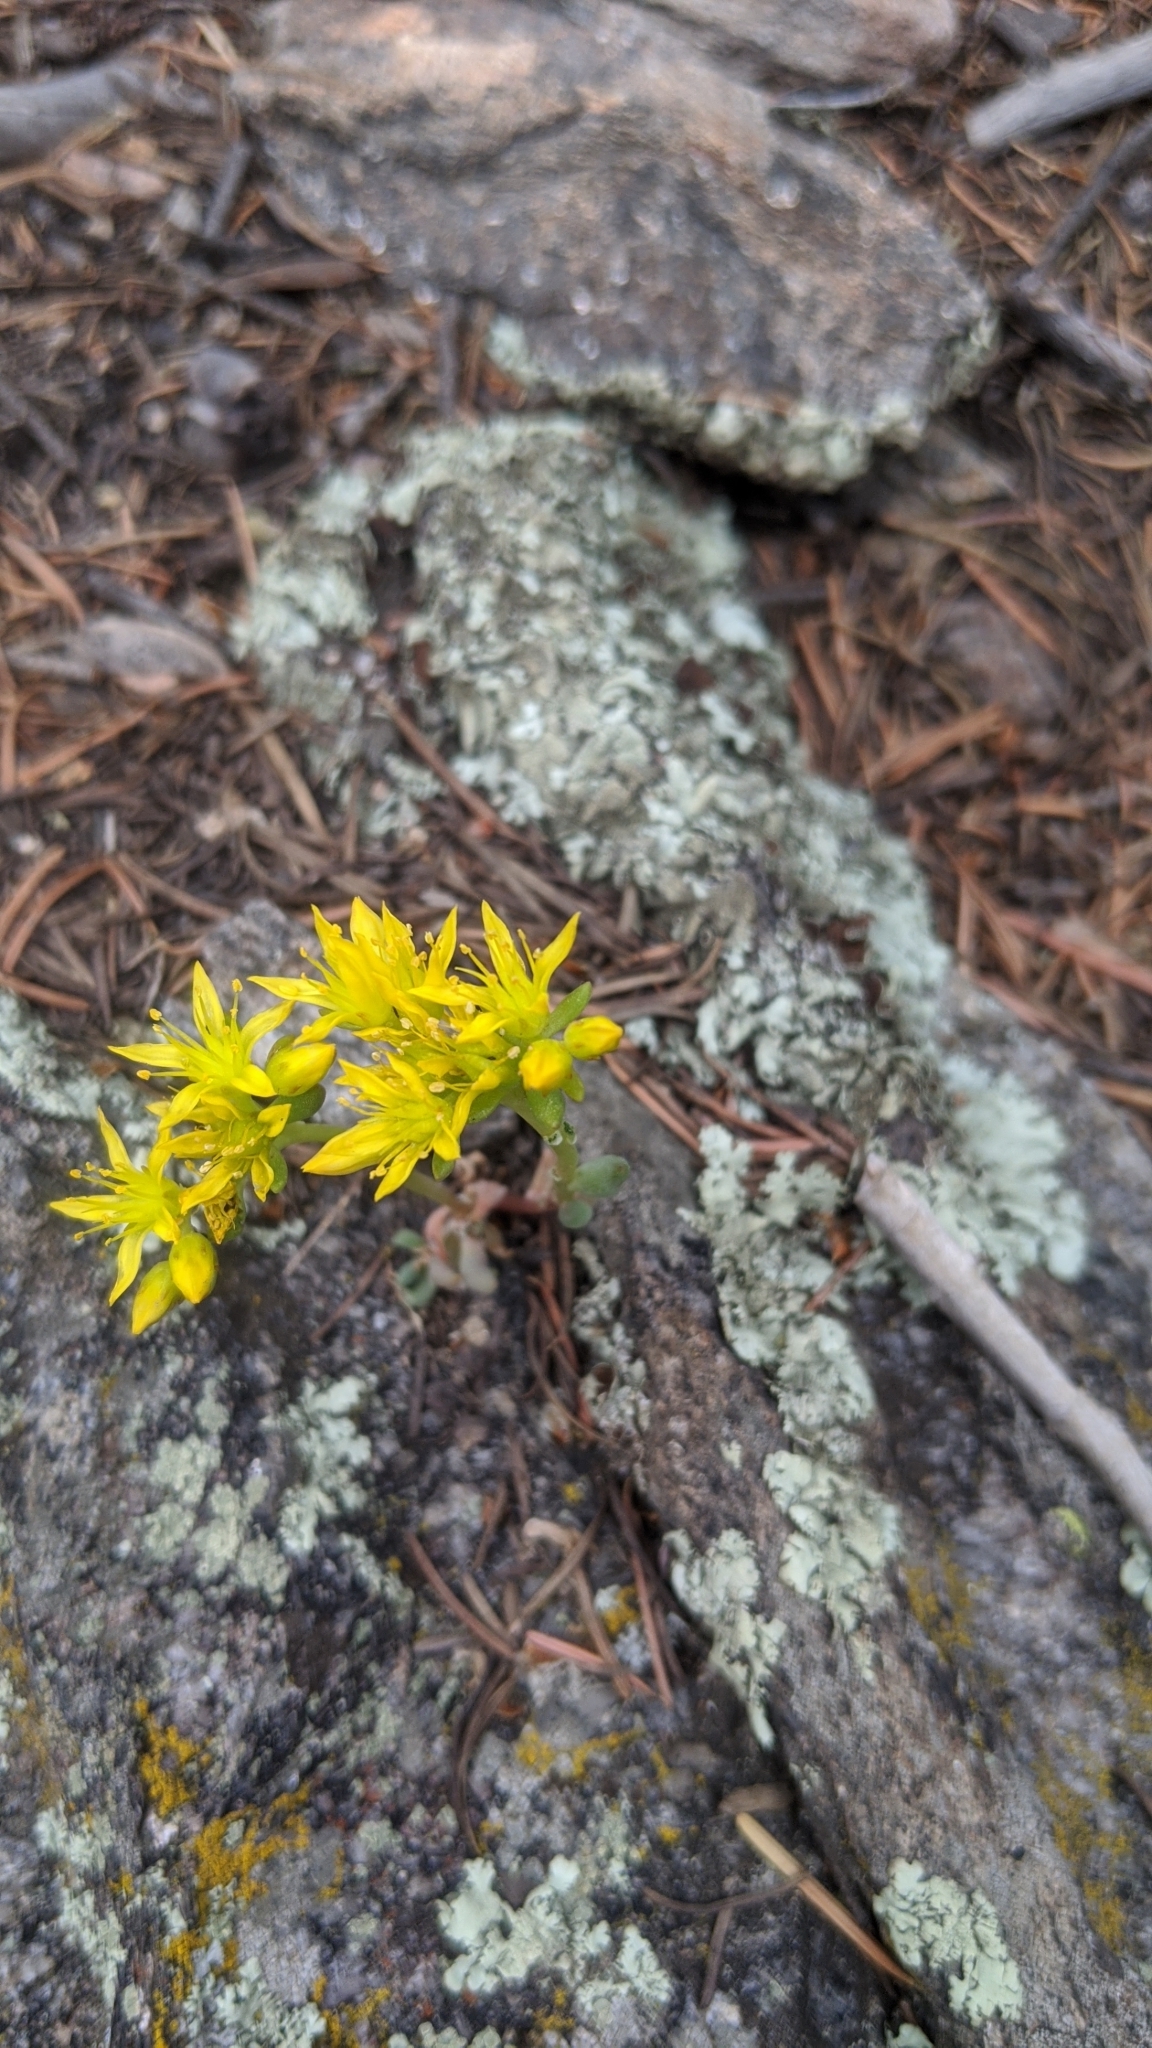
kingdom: Plantae
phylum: Tracheophyta
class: Magnoliopsida
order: Saxifragales
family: Crassulaceae
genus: Sedum
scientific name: Sedum lanceolatum
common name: Common stonecrop
